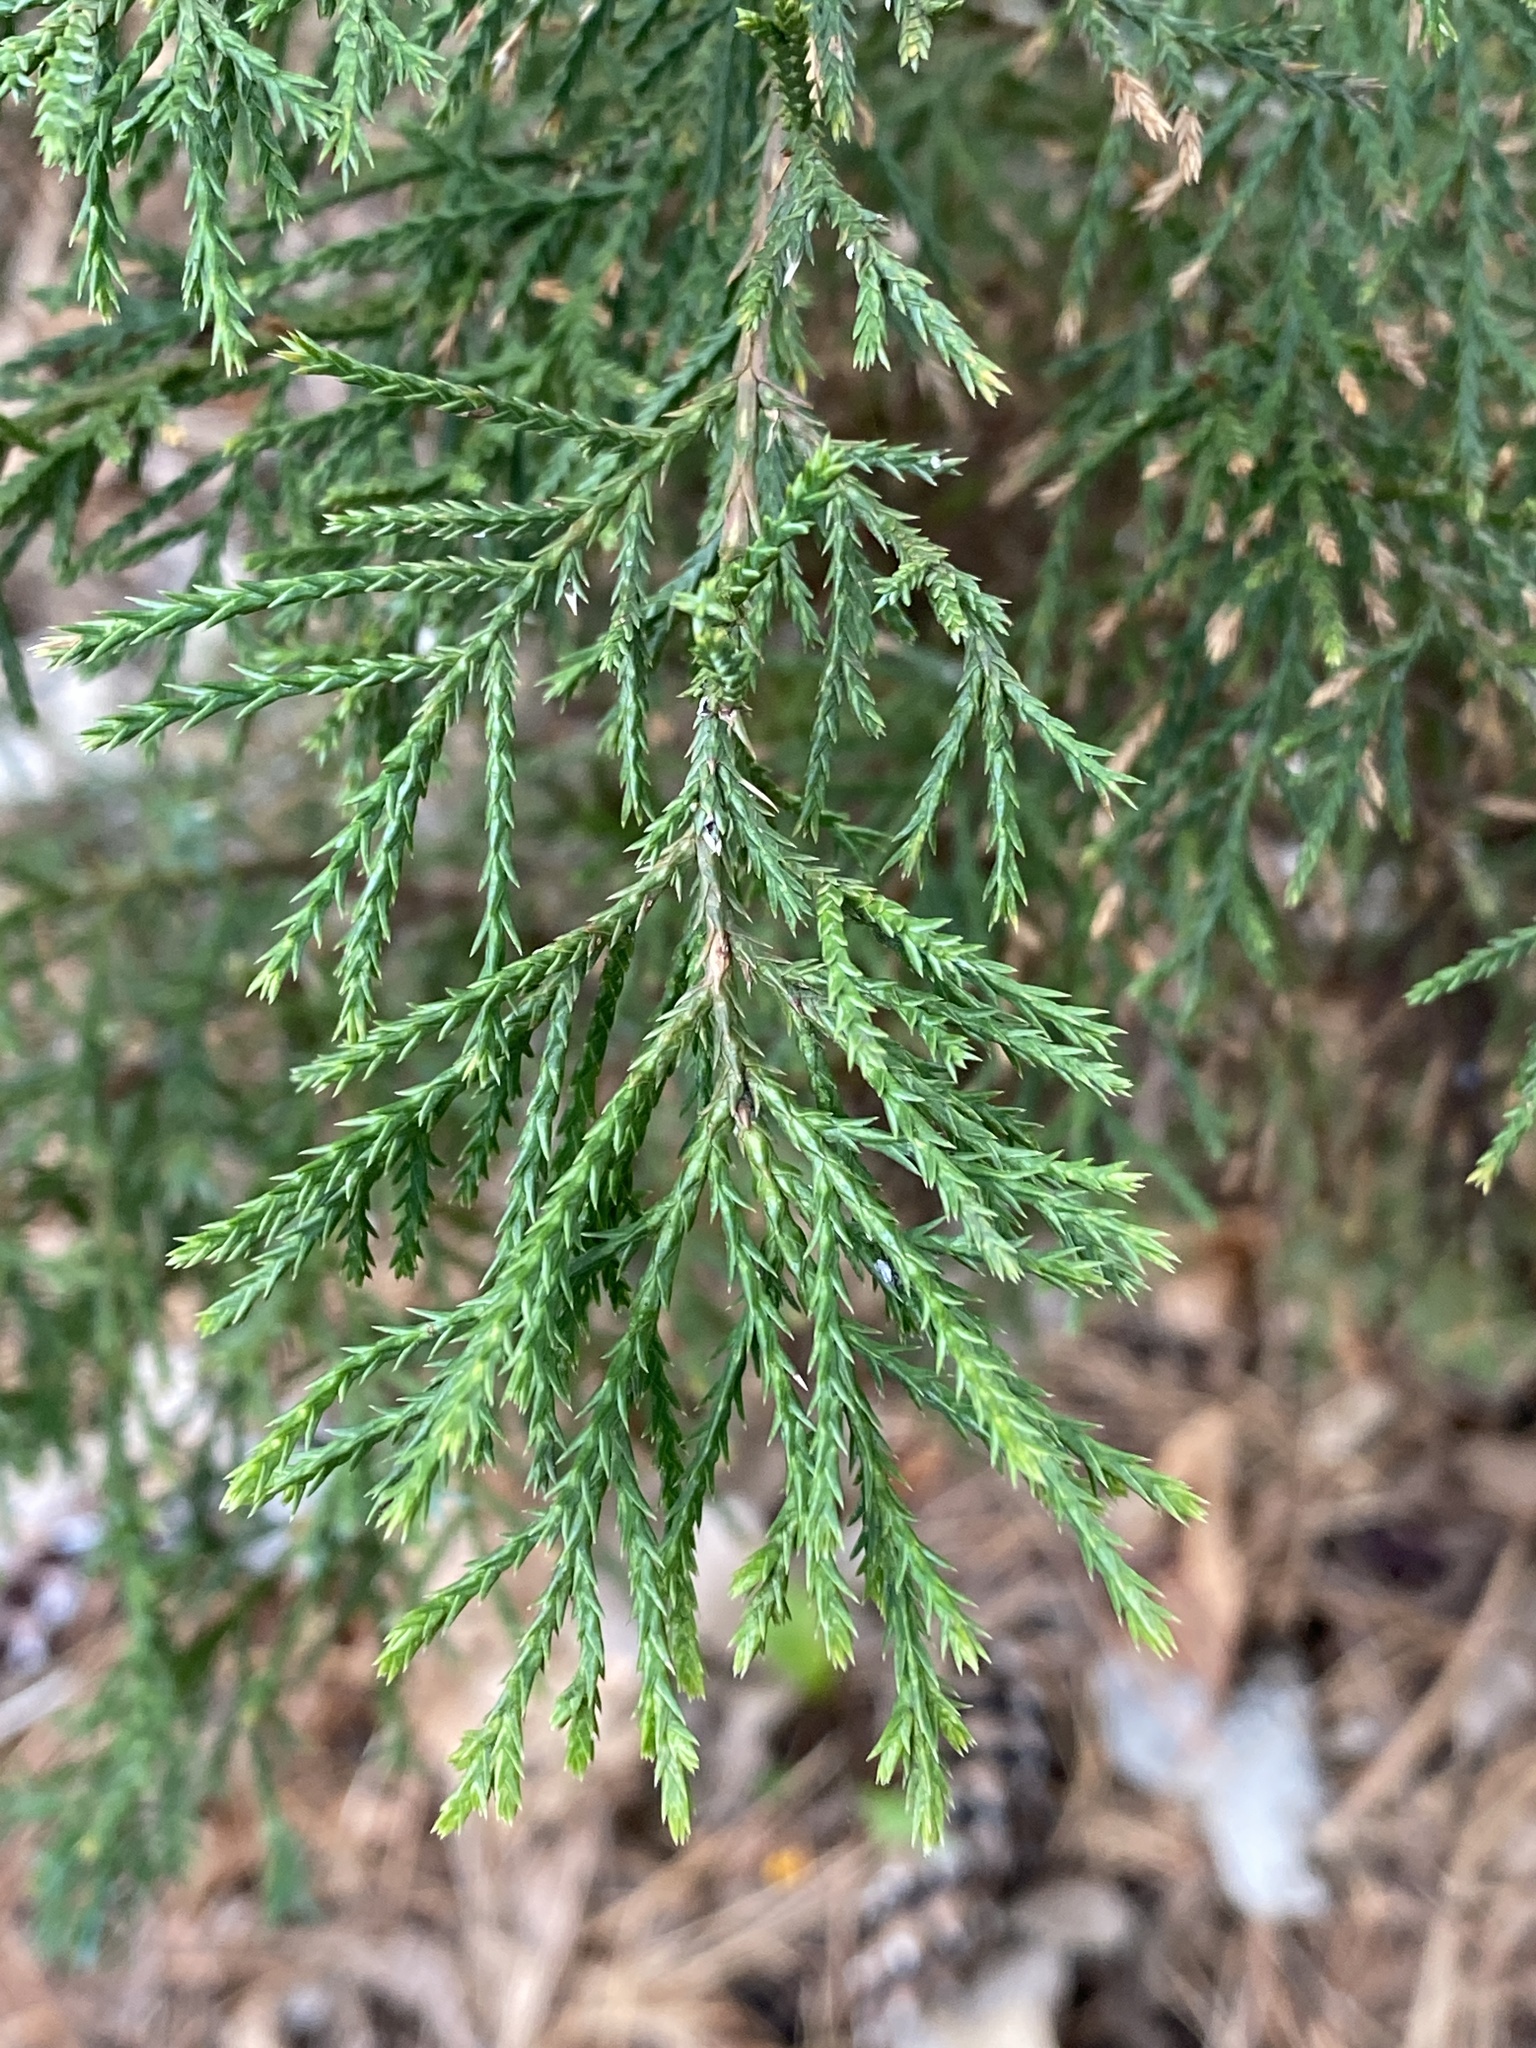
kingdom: Plantae
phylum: Tracheophyta
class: Pinopsida
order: Pinales
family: Cupressaceae
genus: Juniperus
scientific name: Juniperus virginiana
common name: Red juniper
